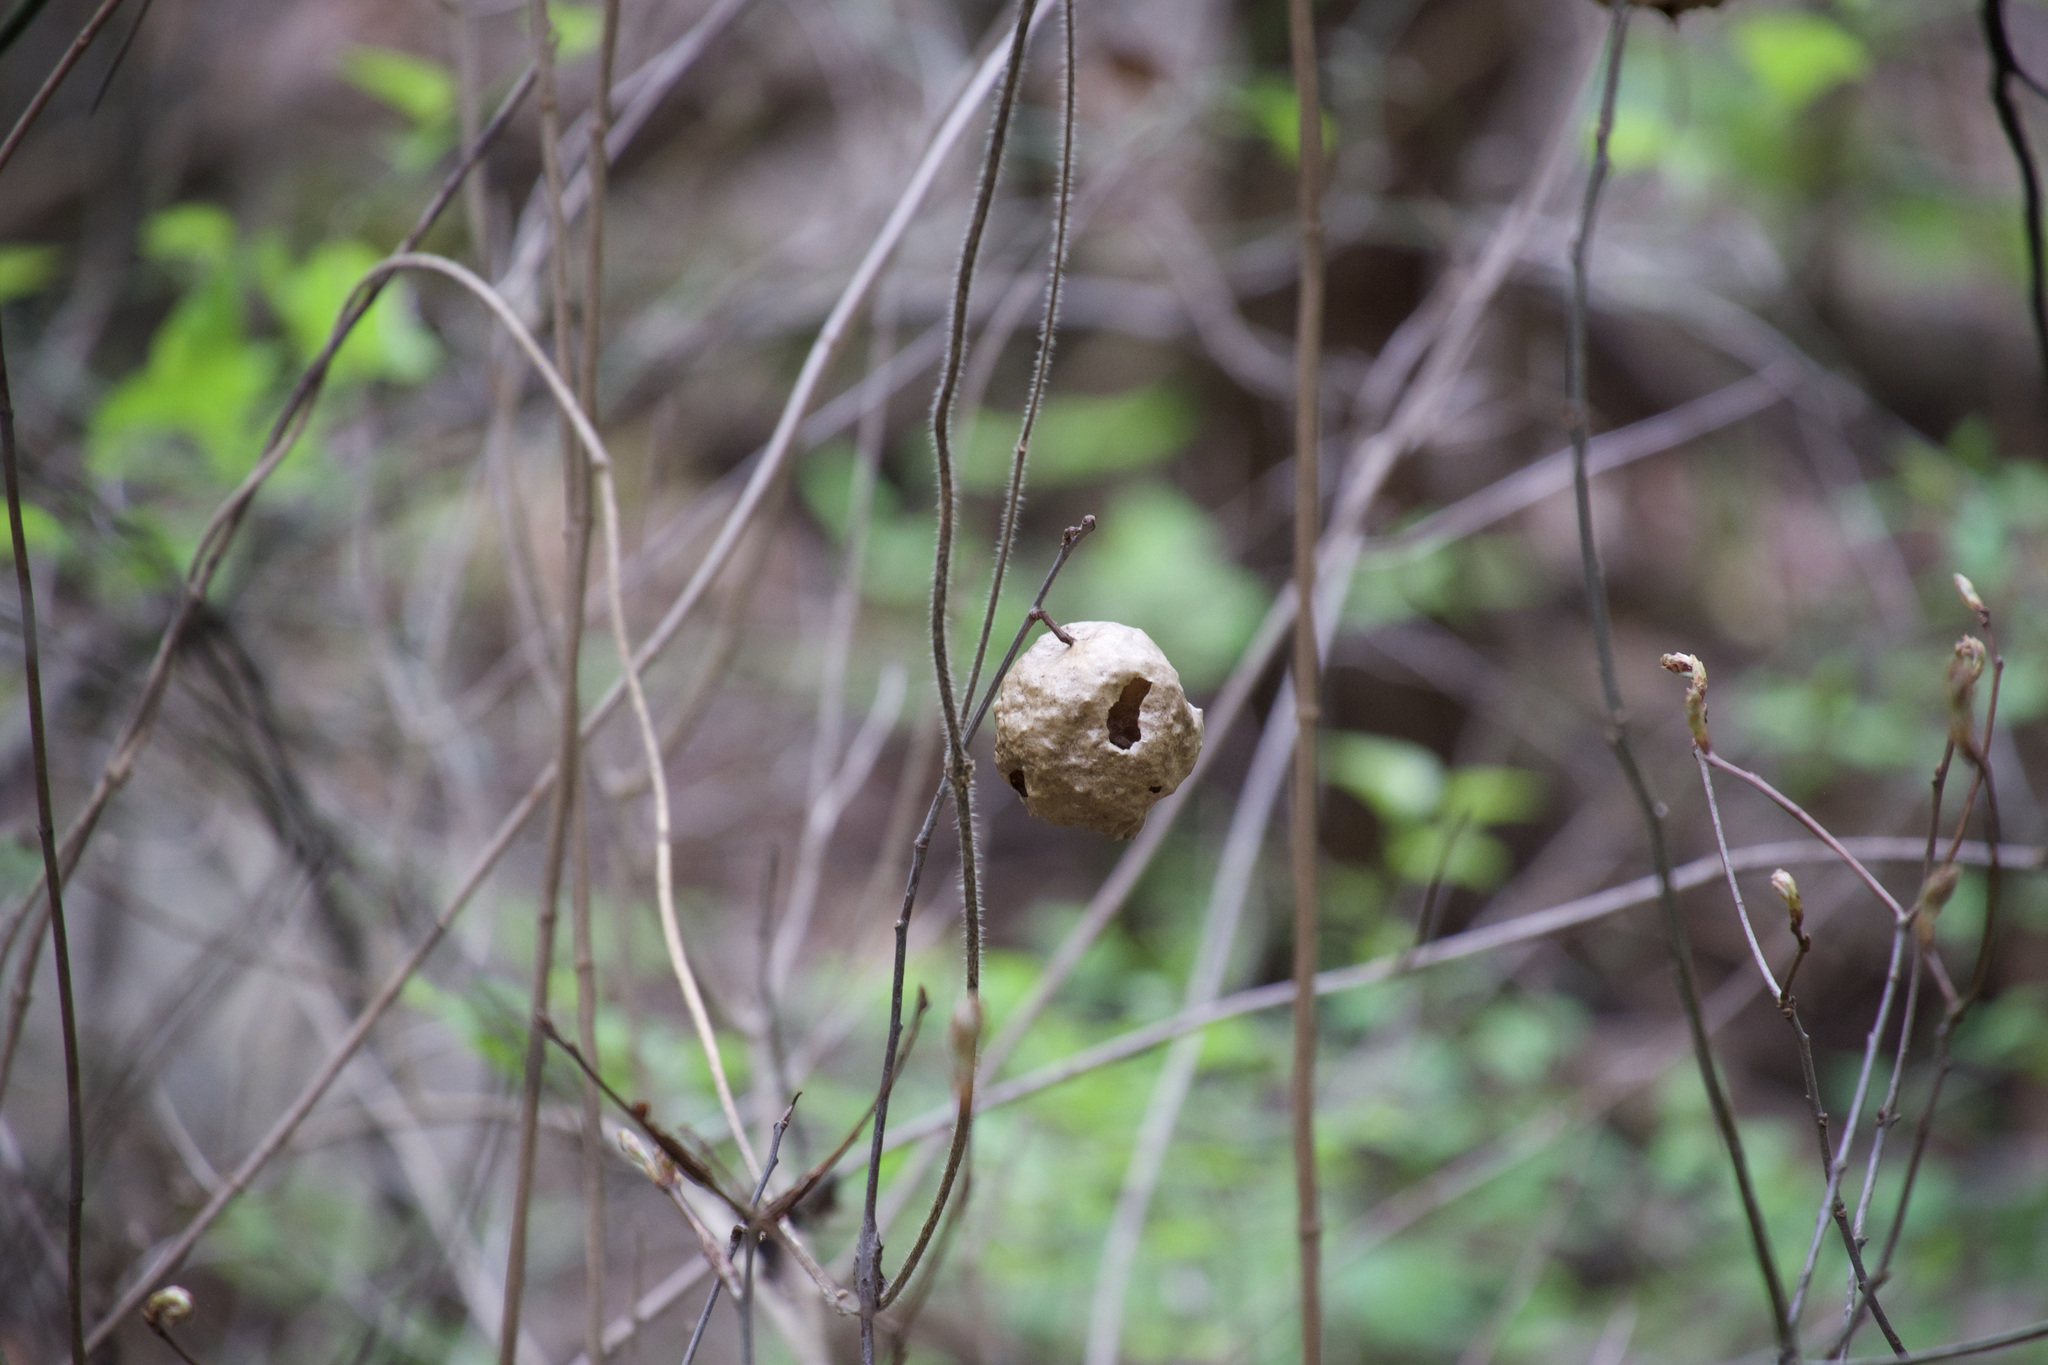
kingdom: Animalia
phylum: Arthropoda
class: Insecta
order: Hymenoptera
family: Cynipidae
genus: Amphibolips
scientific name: Amphibolips
